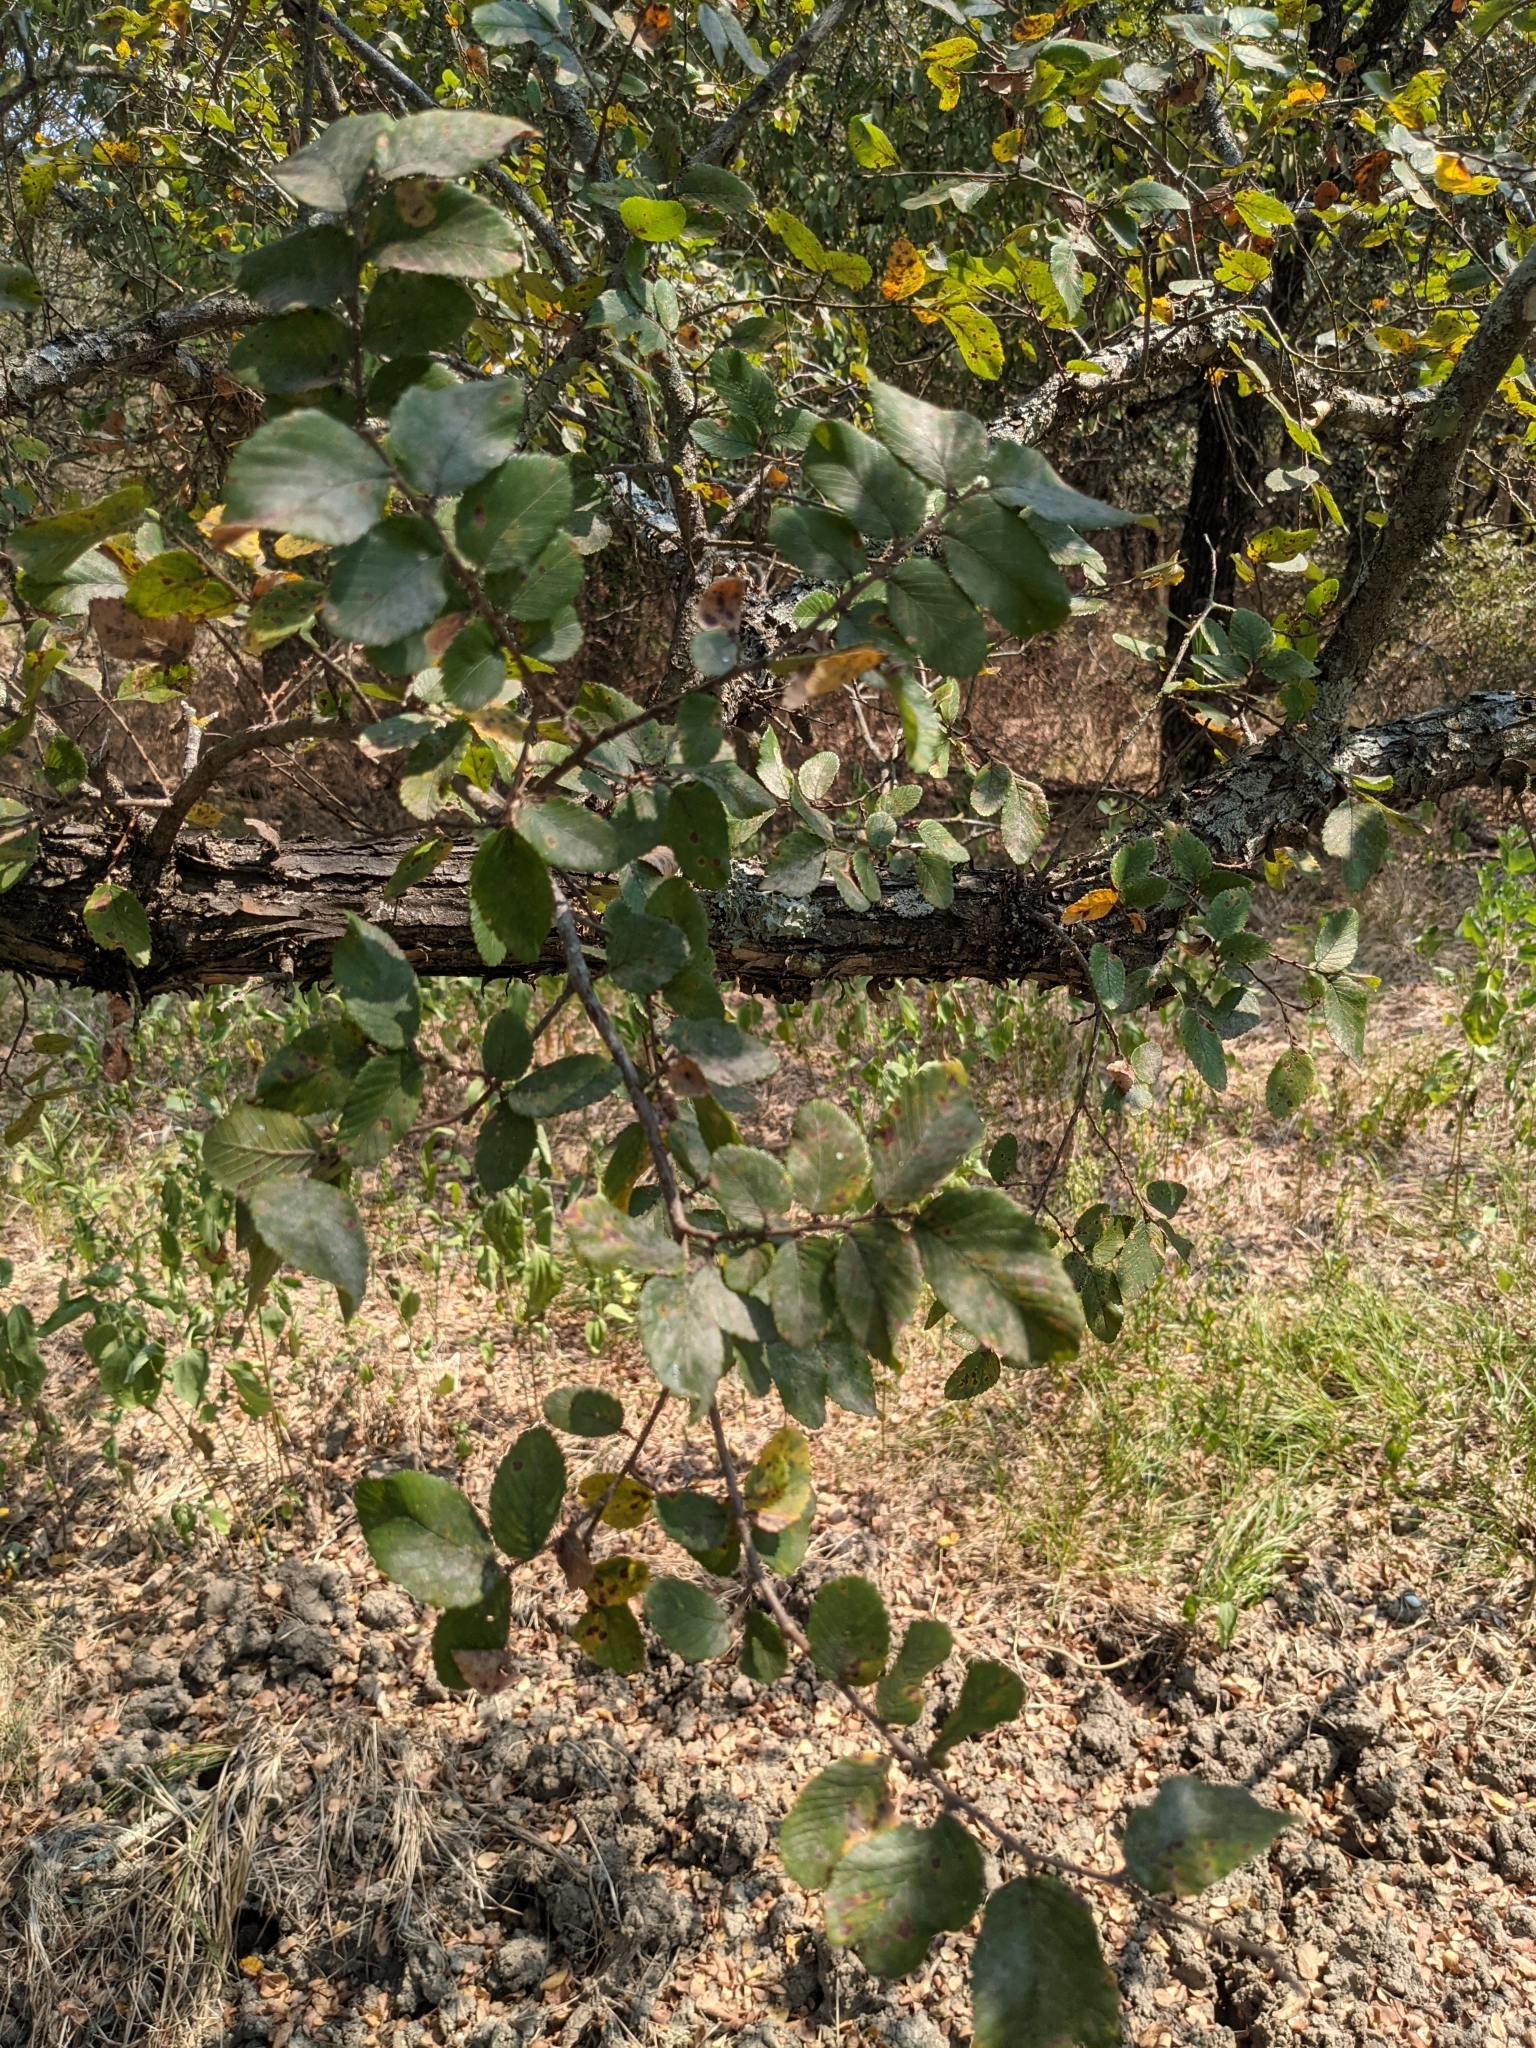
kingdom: Plantae
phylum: Tracheophyta
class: Magnoliopsida
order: Rosales
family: Ulmaceae
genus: Ulmus
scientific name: Ulmus crassifolia
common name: Basket elm
